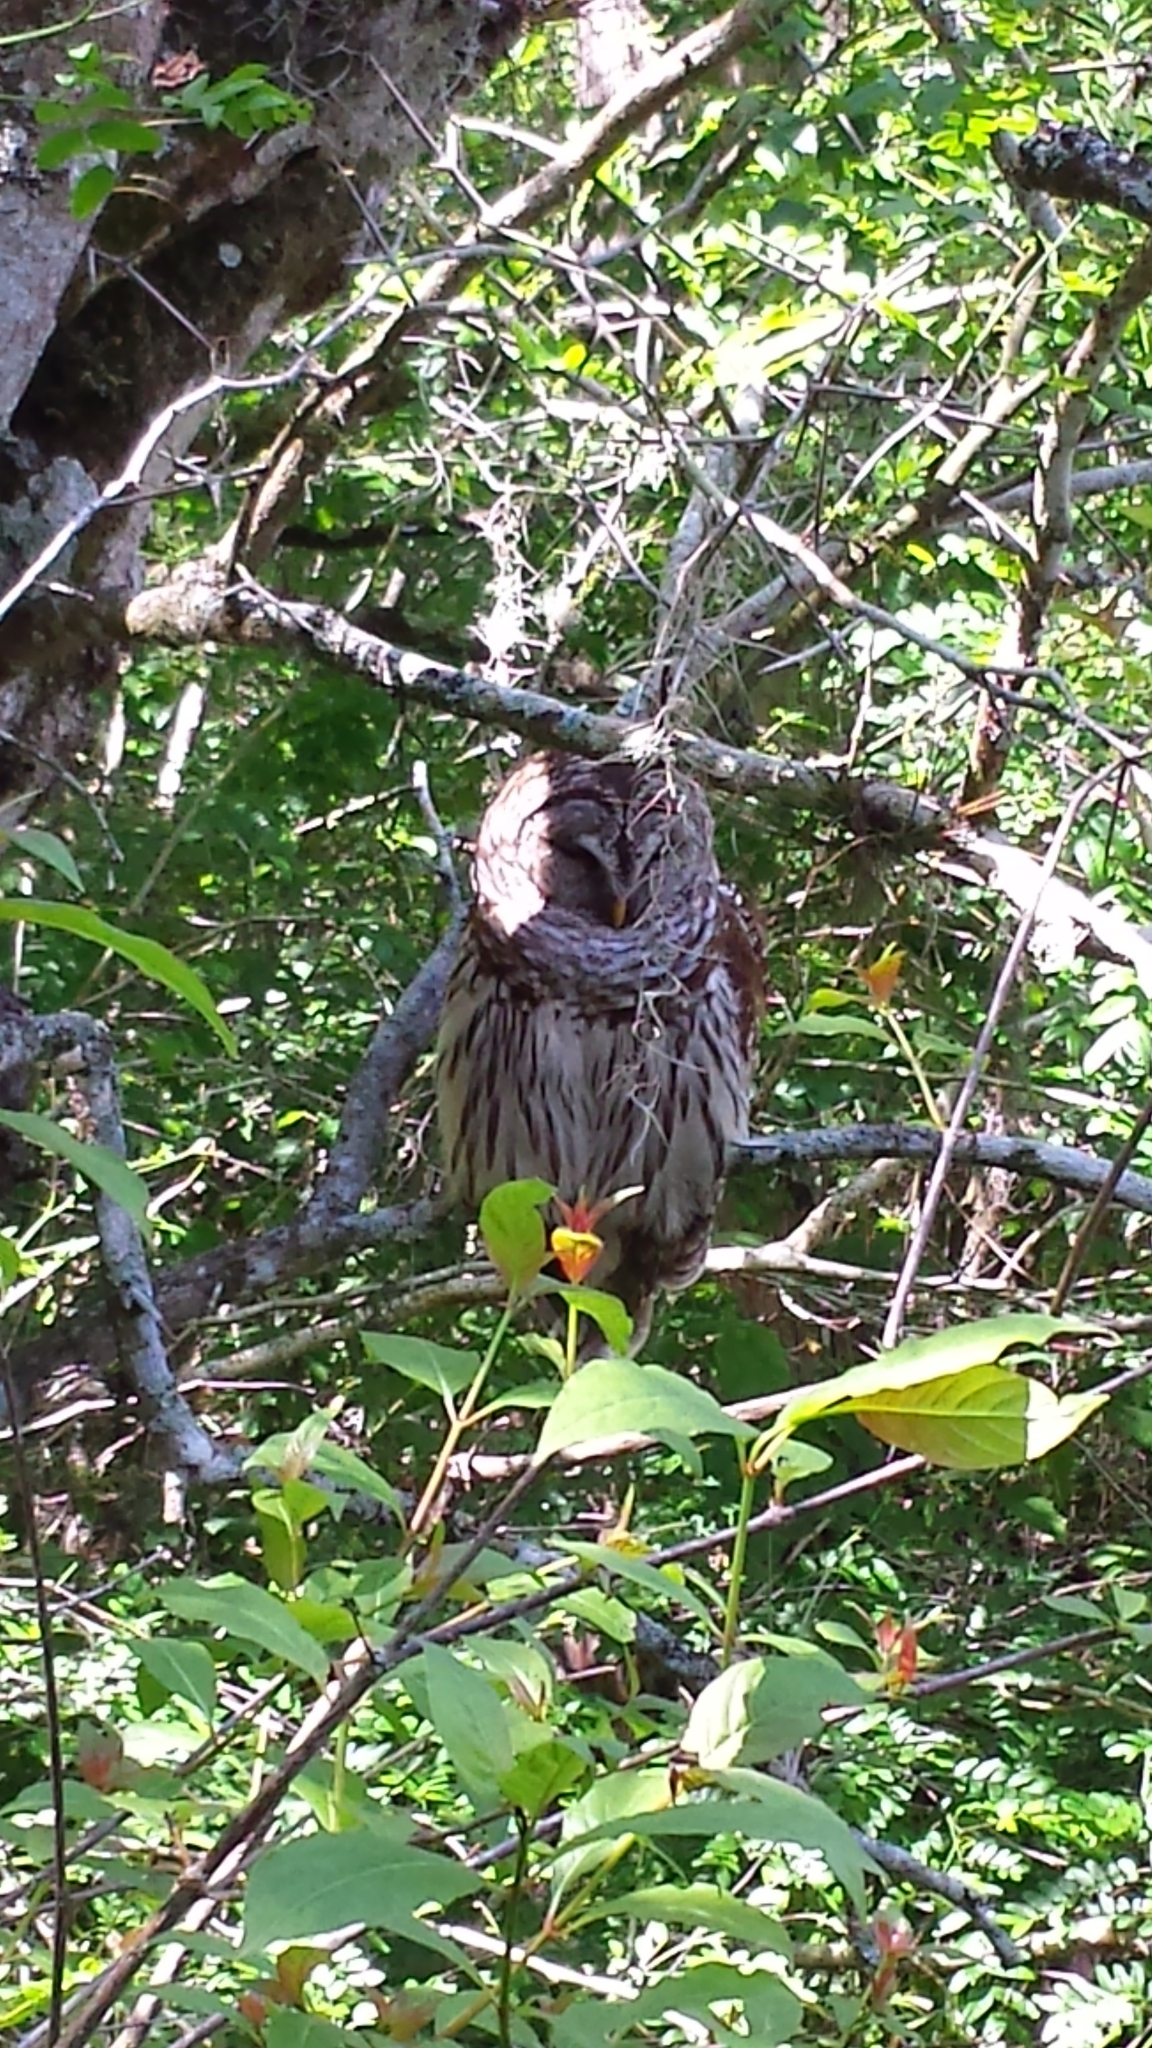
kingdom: Animalia
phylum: Chordata
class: Aves
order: Strigiformes
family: Strigidae
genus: Strix
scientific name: Strix varia
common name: Barred owl
